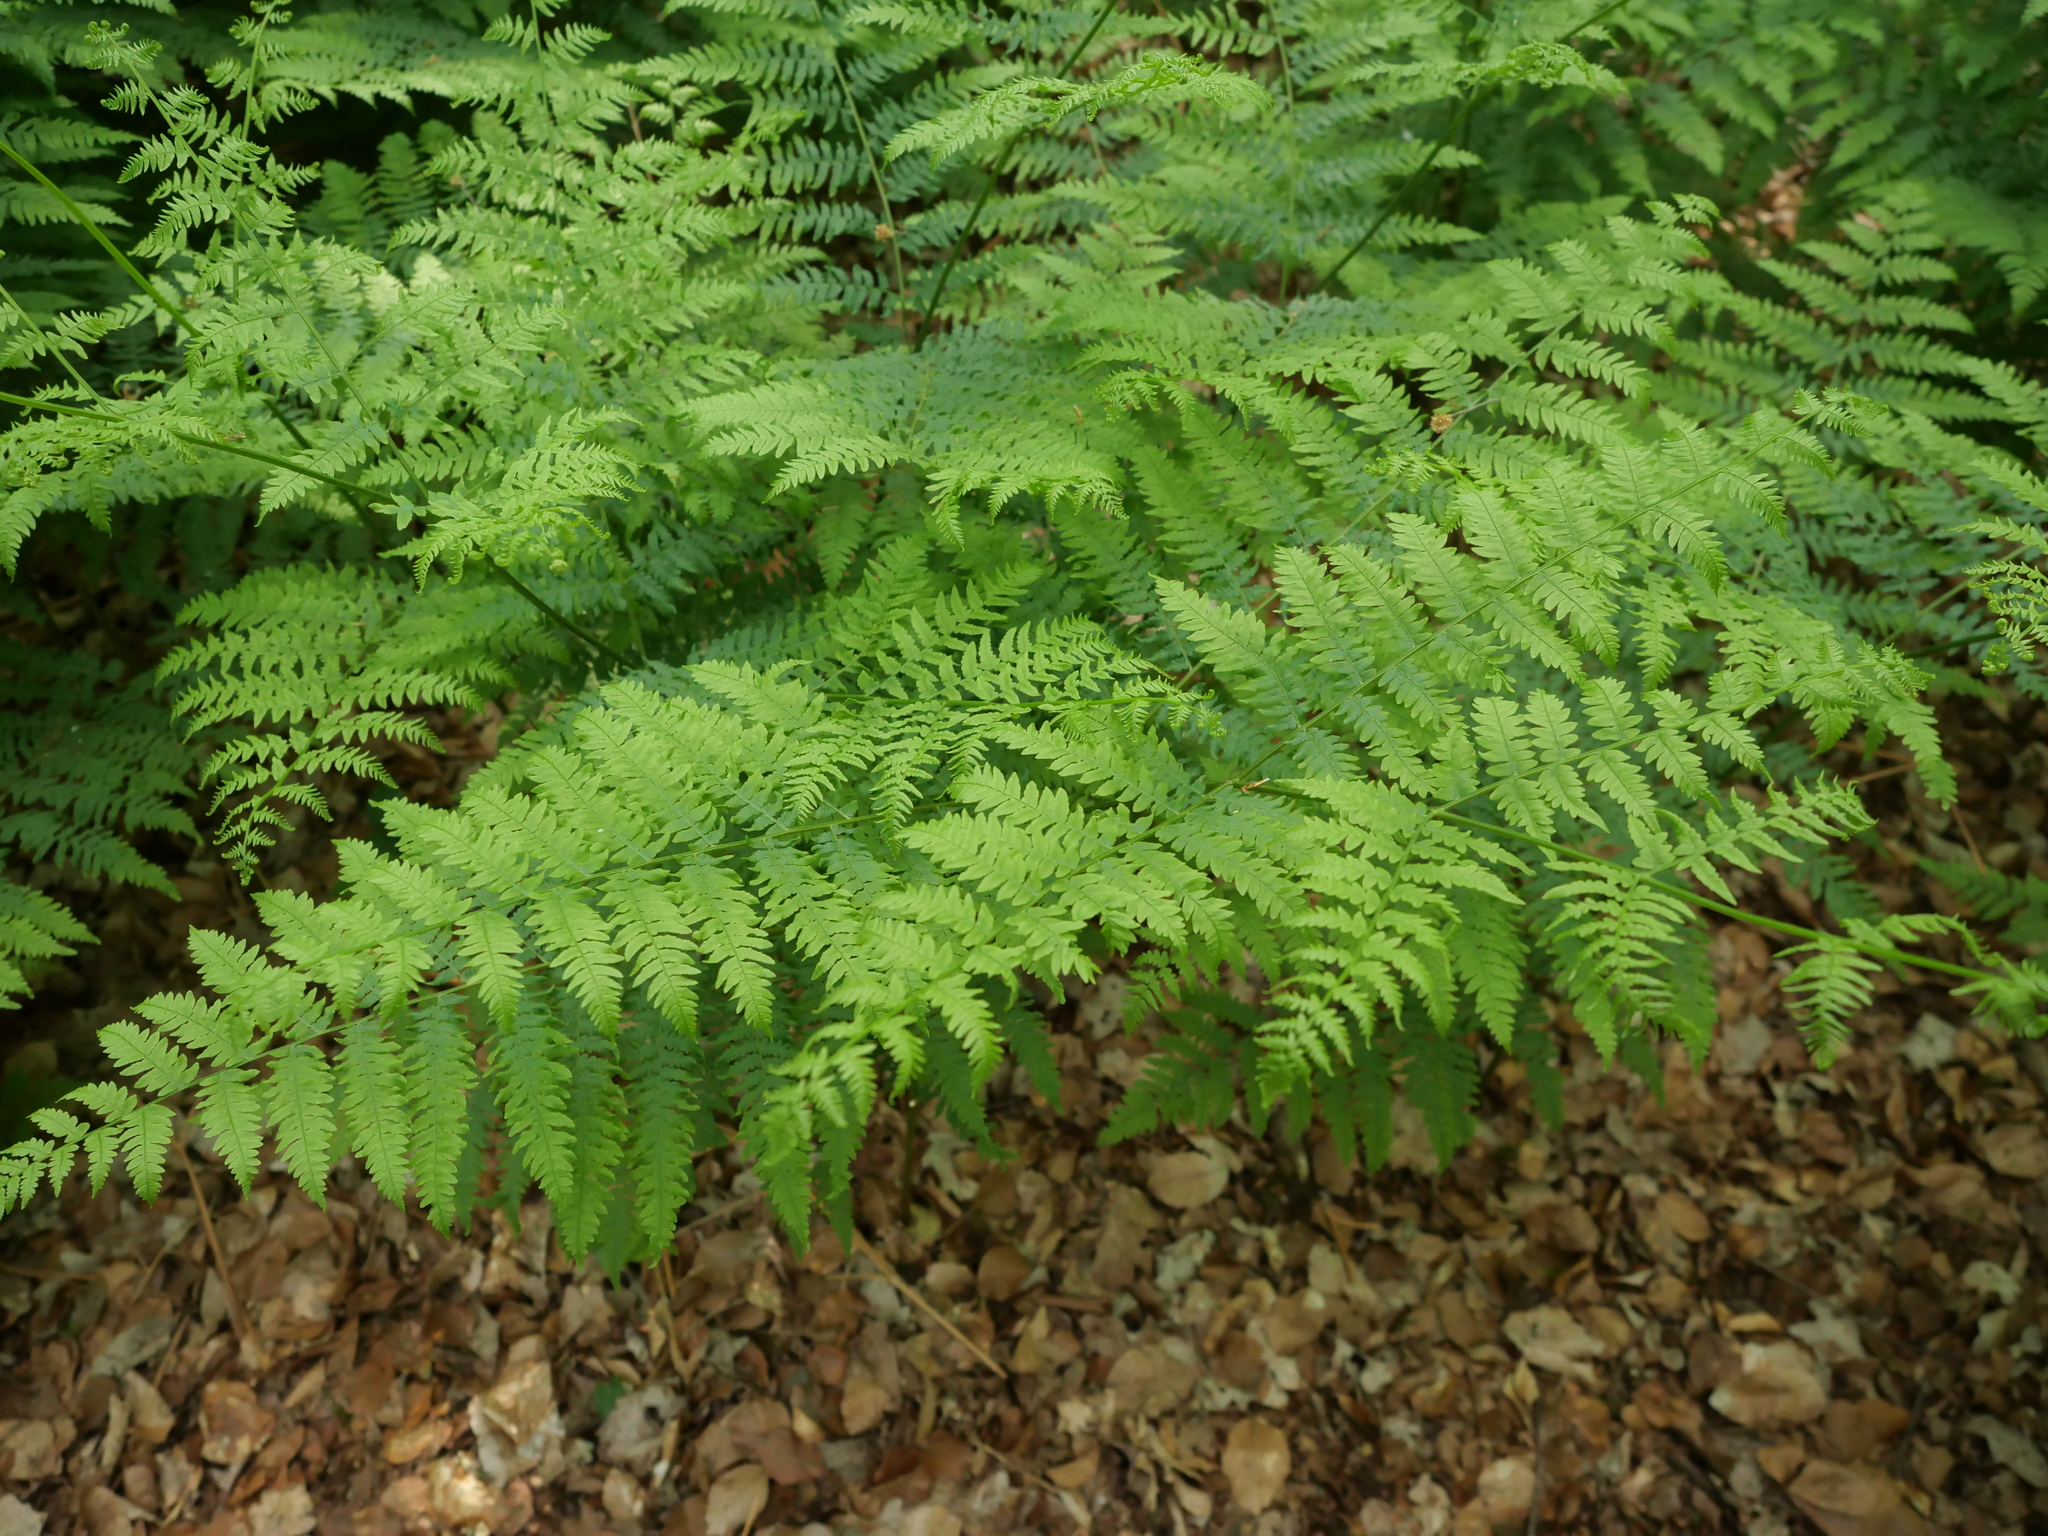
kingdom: Plantae
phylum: Tracheophyta
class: Polypodiopsida
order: Polypodiales
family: Dennstaedtiaceae
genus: Pteridium
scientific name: Pteridium aquilinum
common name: Bracken
